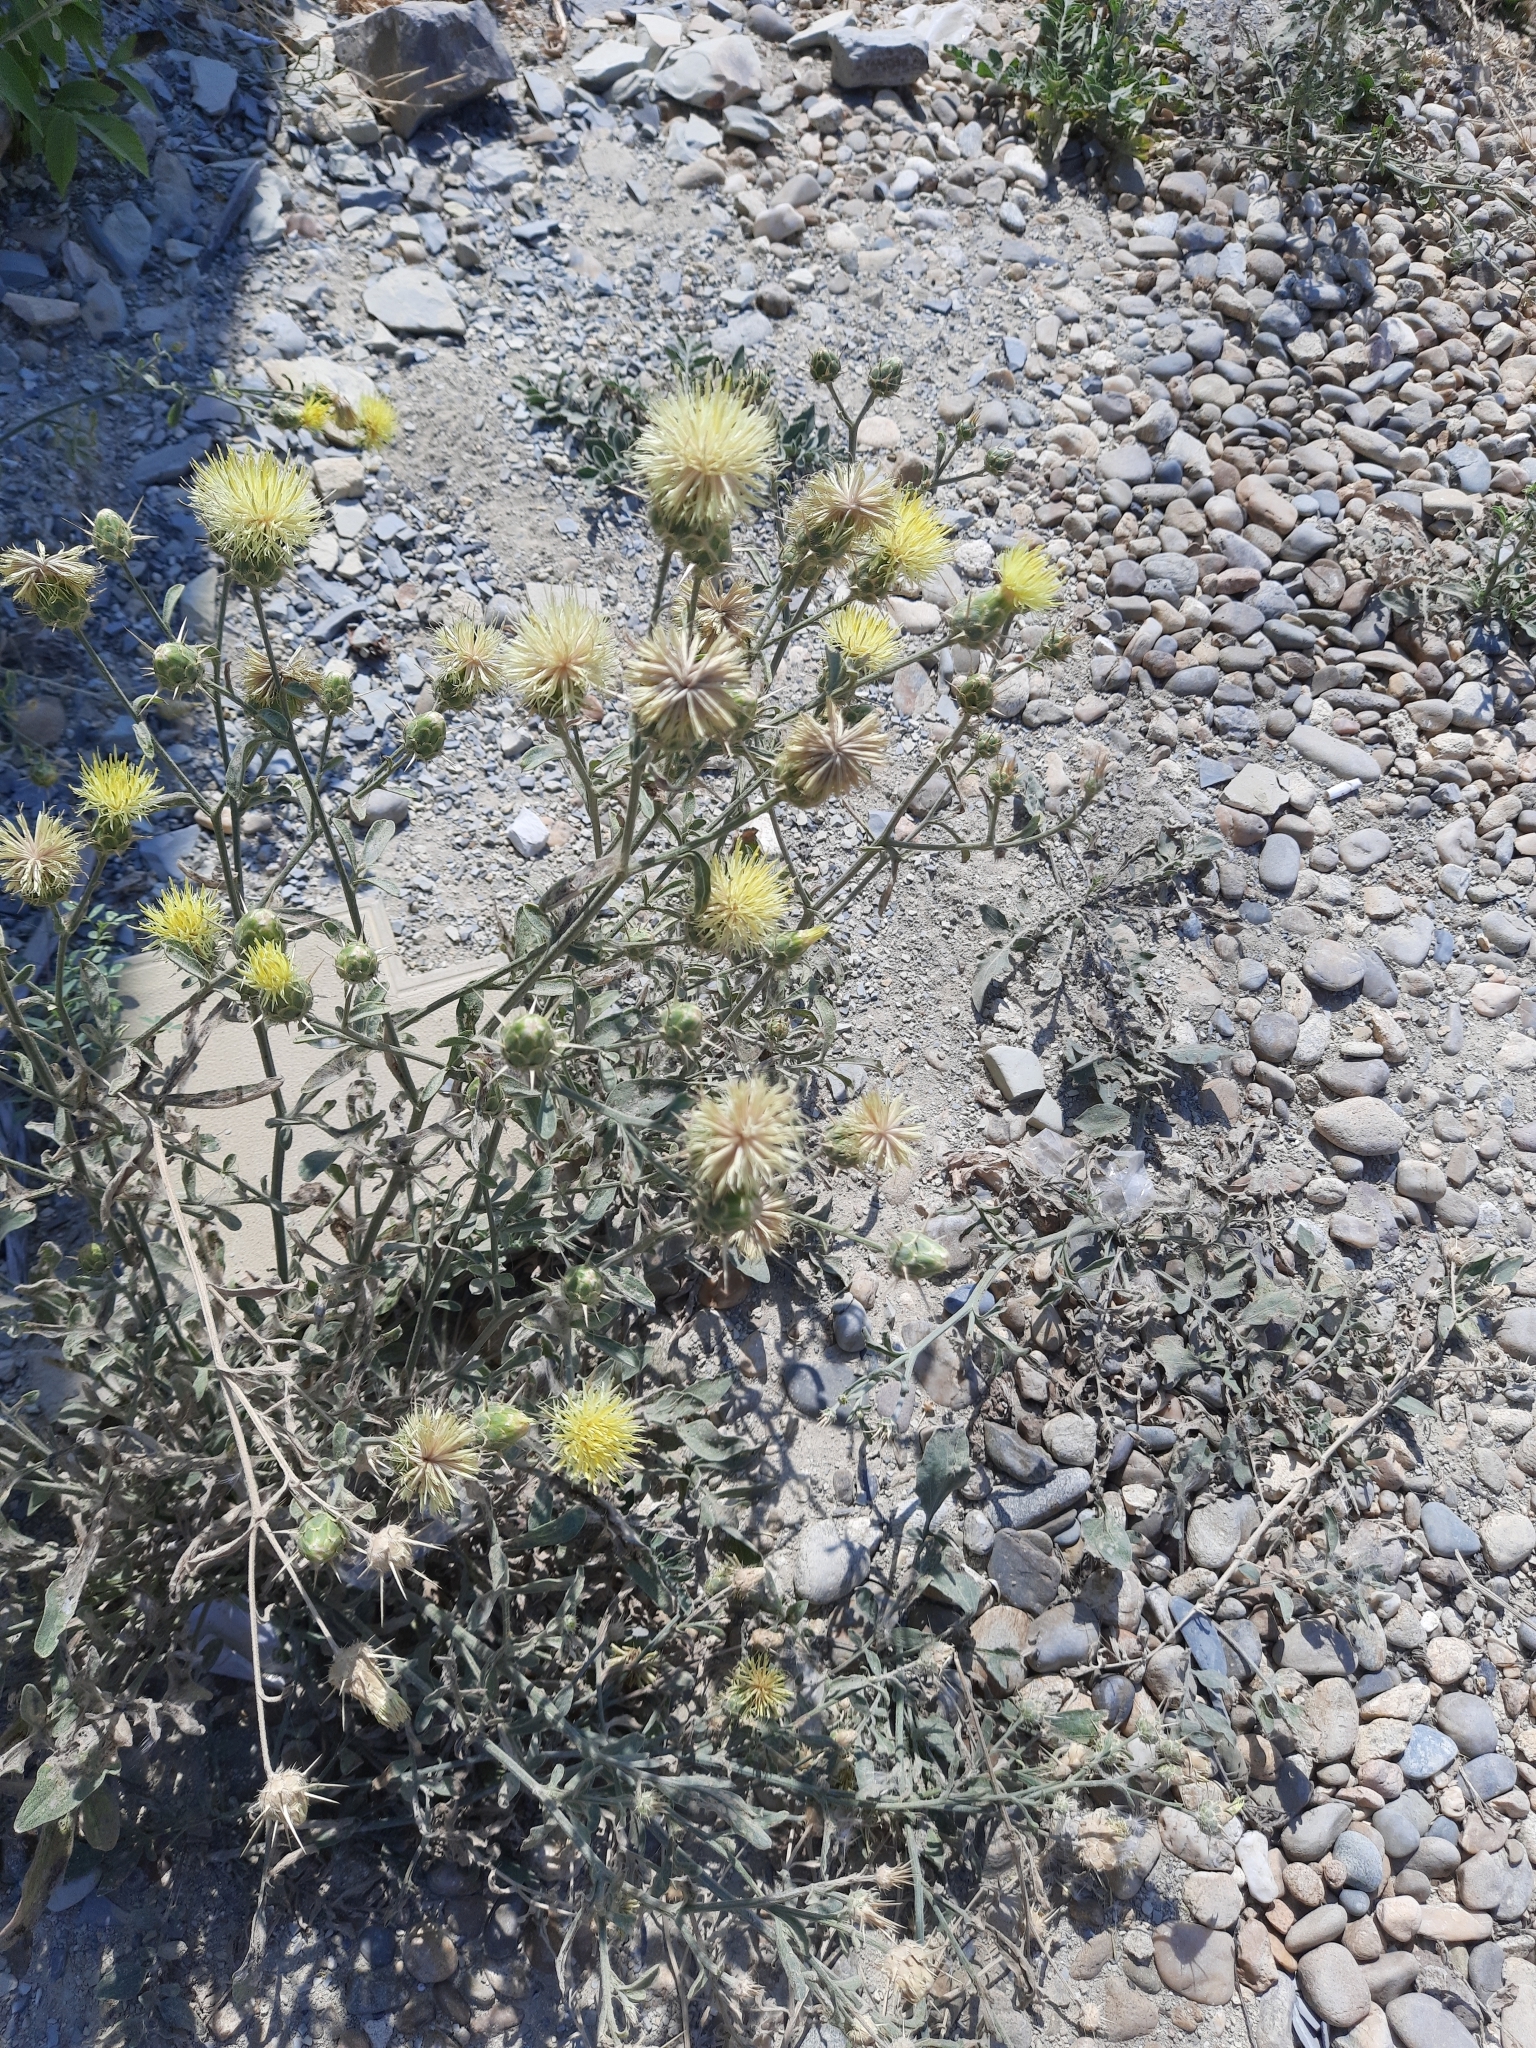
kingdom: Plantae
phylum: Tracheophyta
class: Magnoliopsida
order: Asterales
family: Asteraceae
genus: Centaurea
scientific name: Centaurea salonitana
